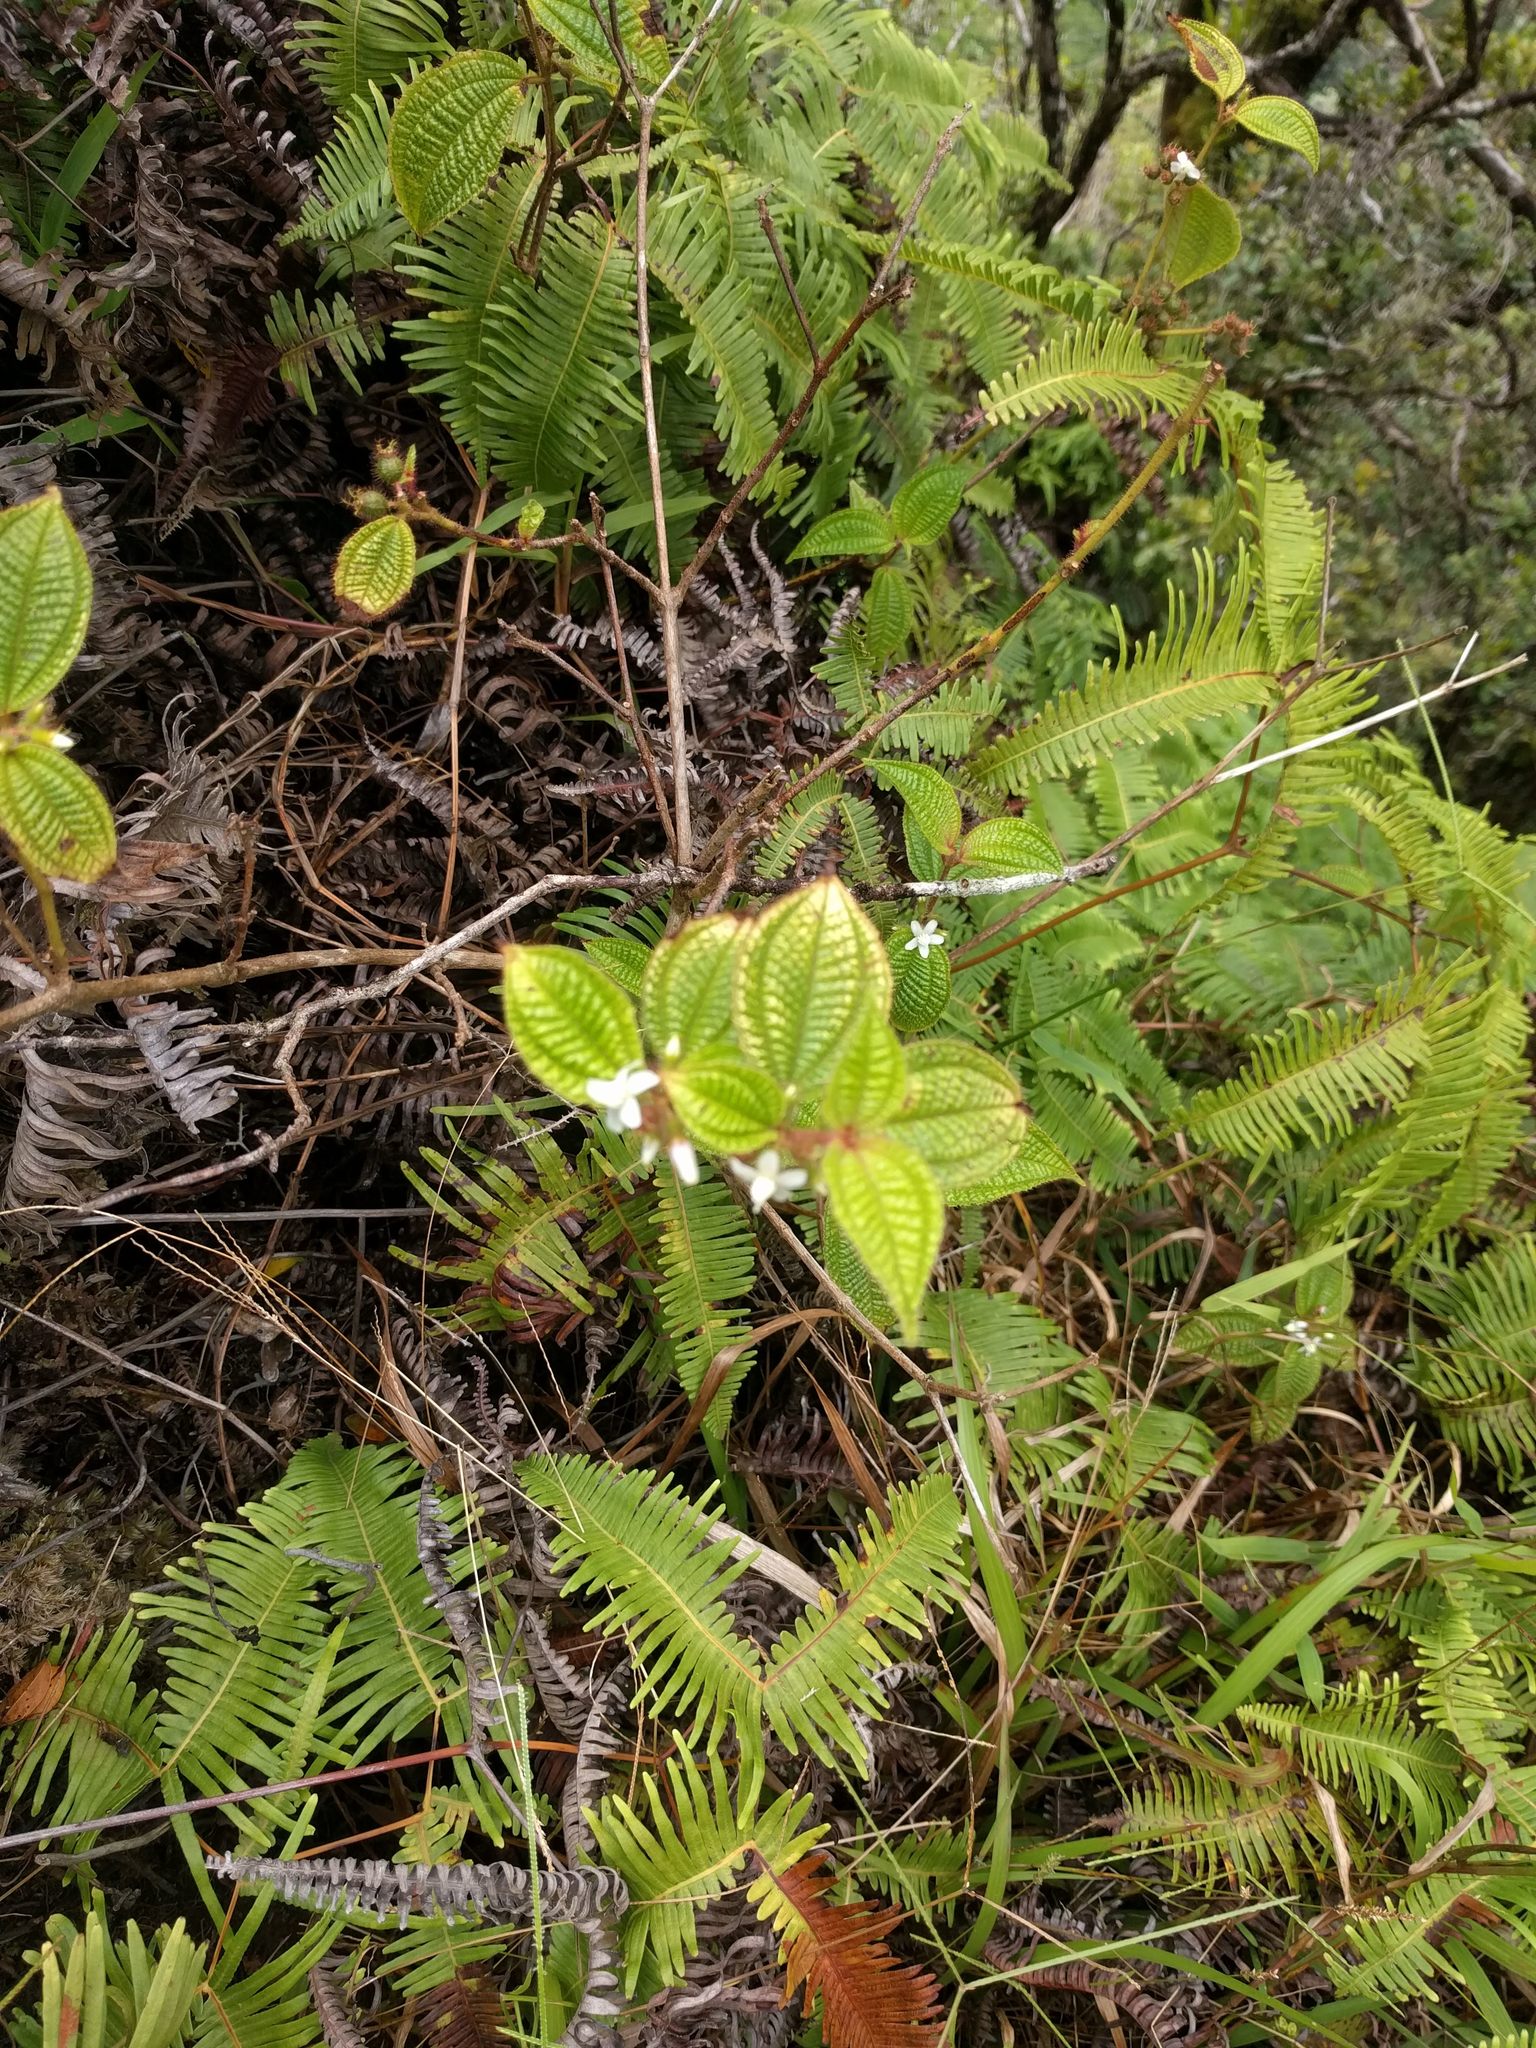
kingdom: Plantae
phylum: Tracheophyta
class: Magnoliopsida
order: Myrtales
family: Melastomataceae
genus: Miconia
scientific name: Miconia crenata
